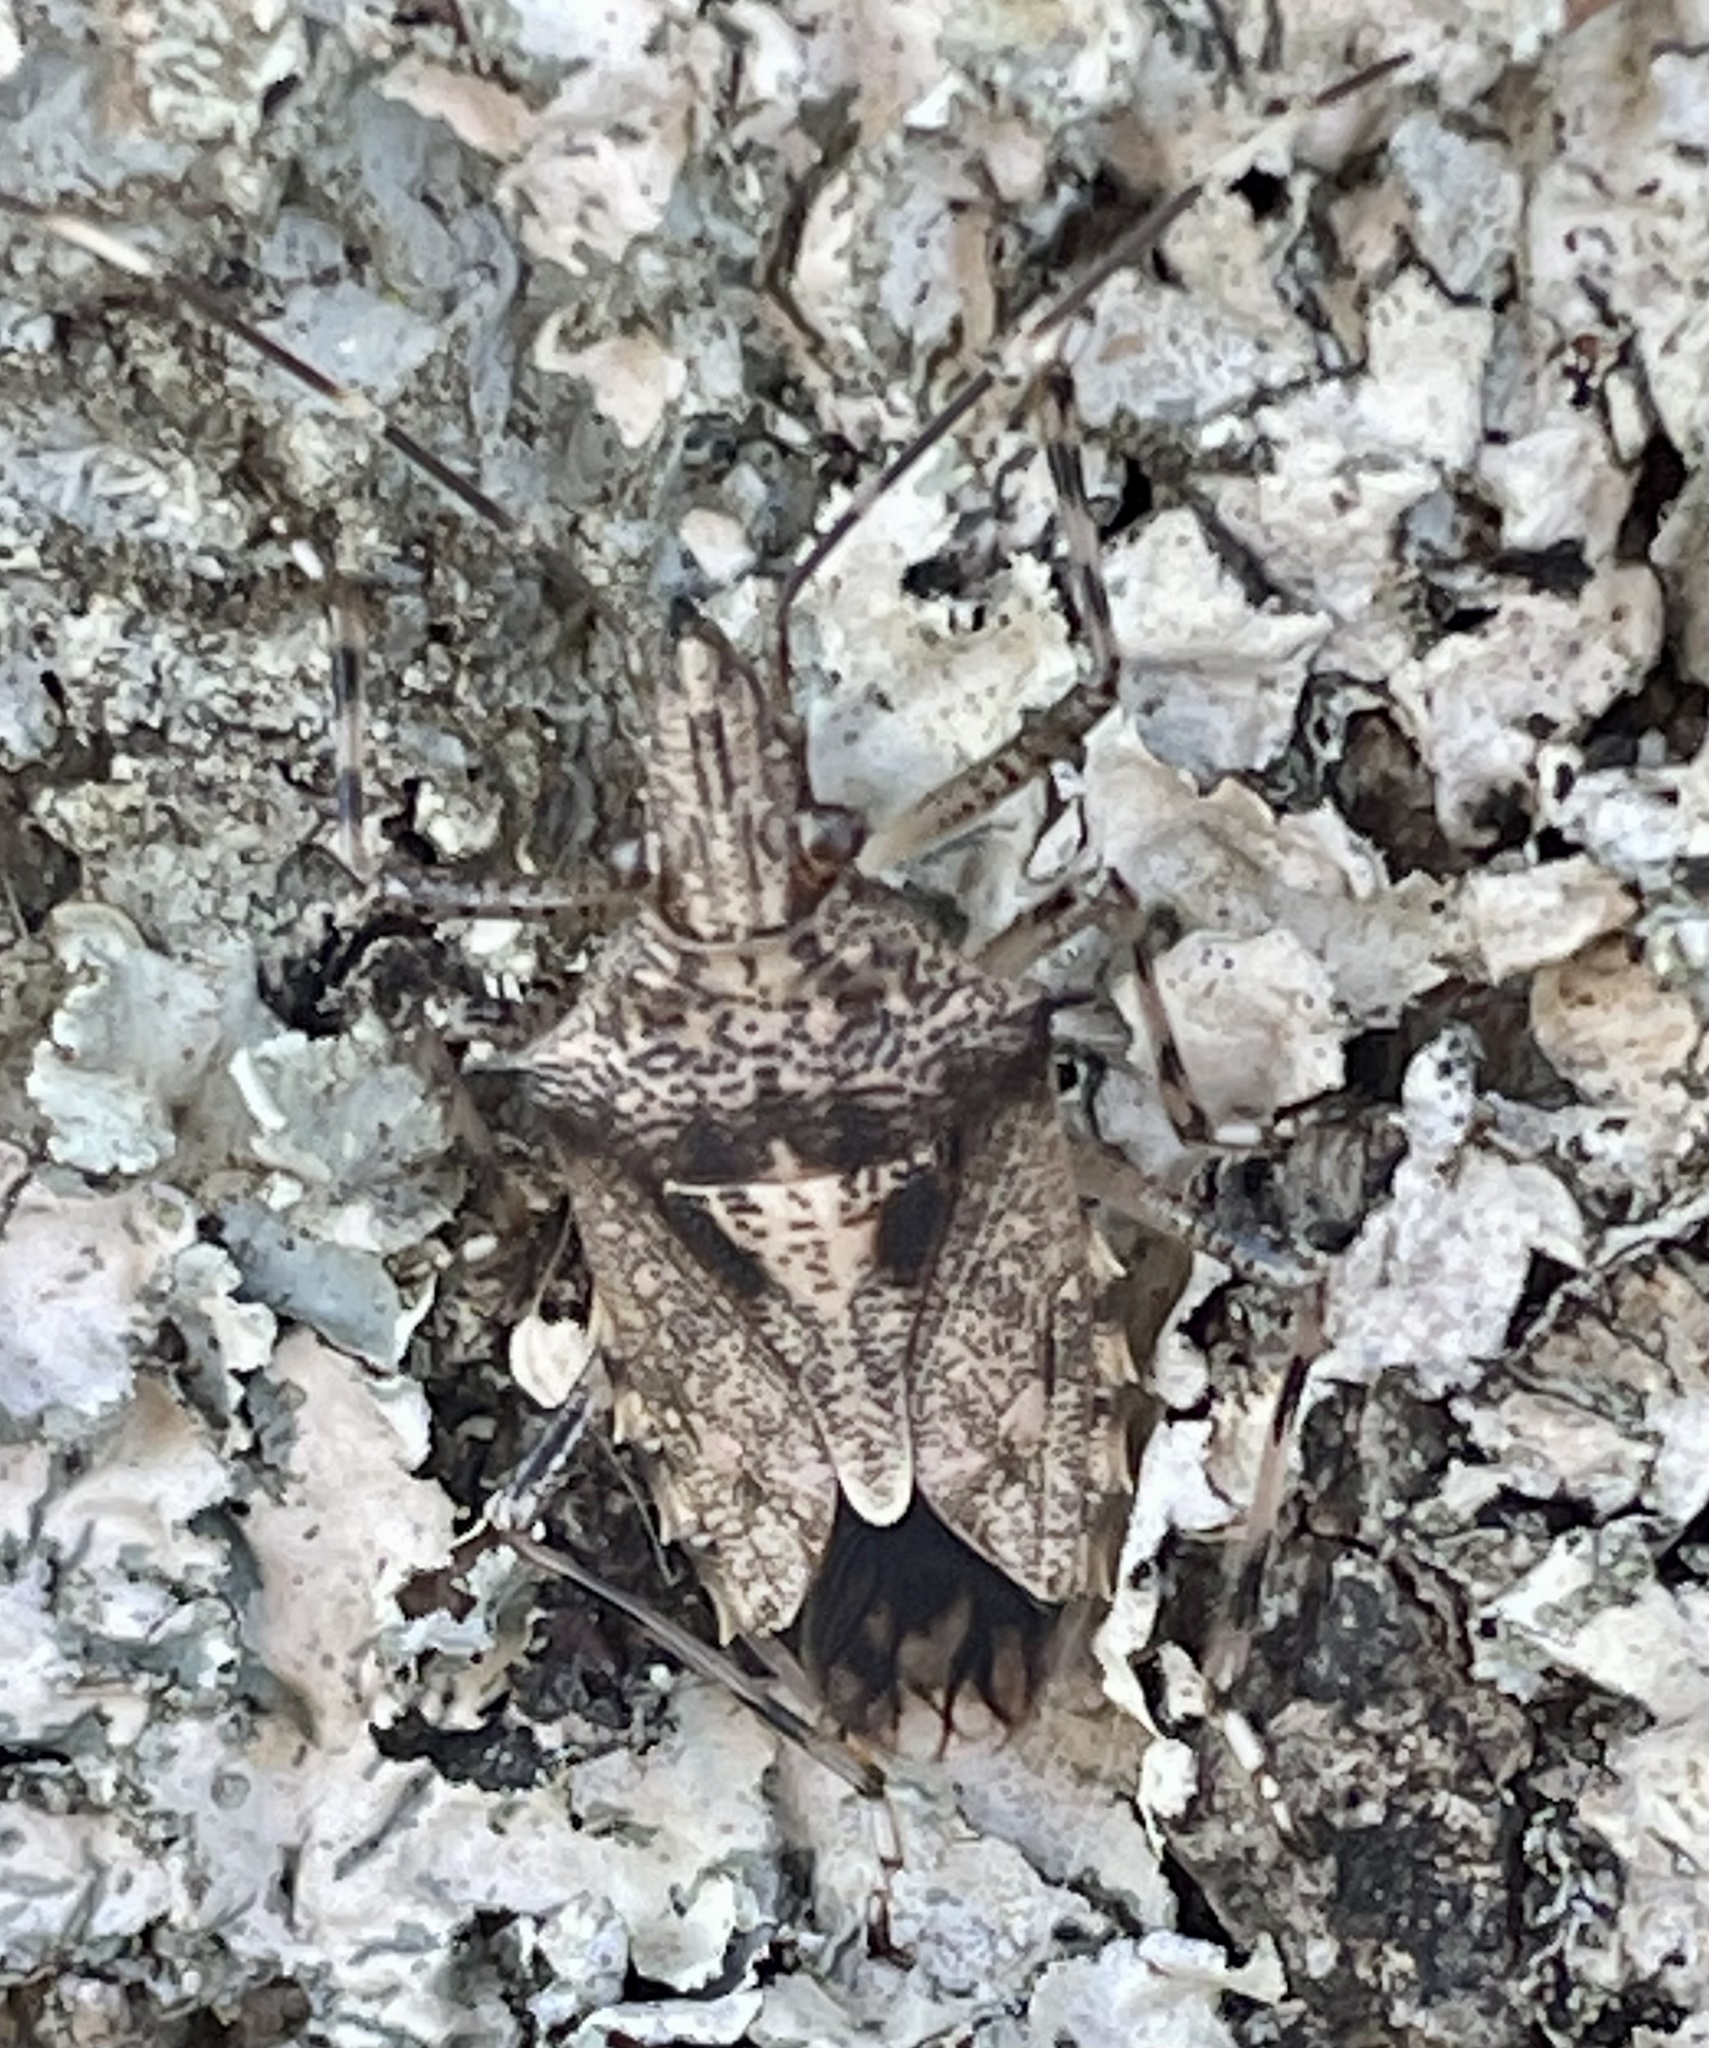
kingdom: Animalia
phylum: Arthropoda
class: Insecta
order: Hemiptera
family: Pentatomidae
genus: Bromocoris
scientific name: Bromocoris
